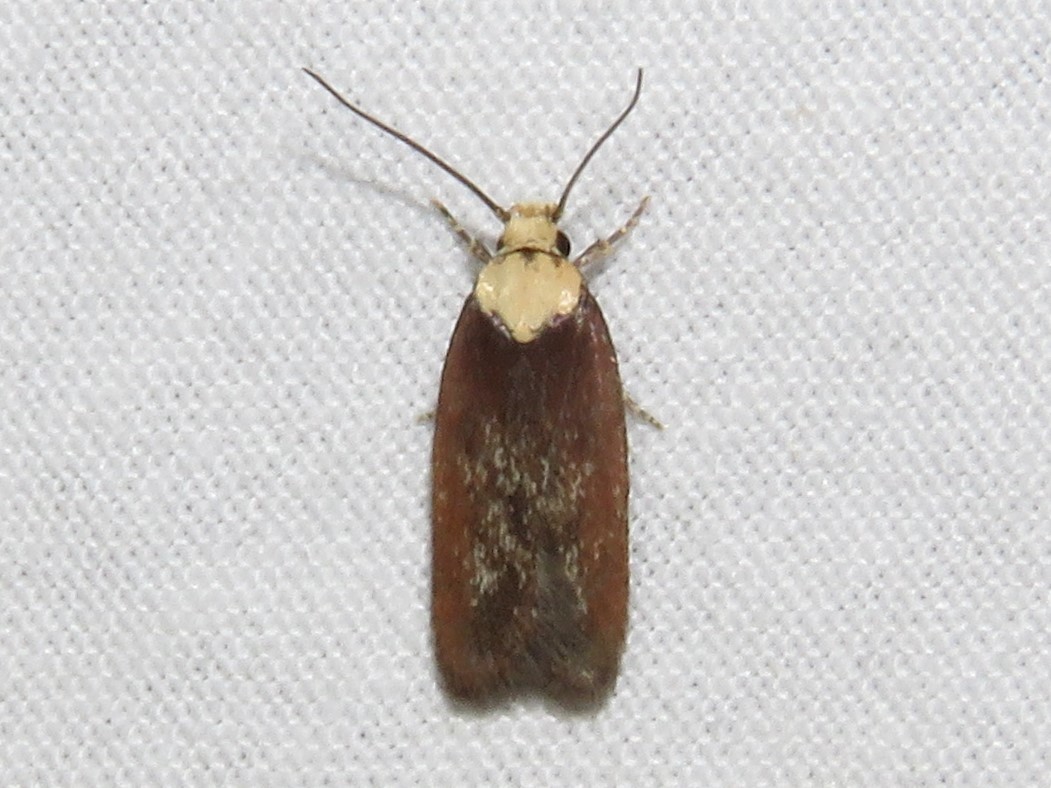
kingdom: Animalia
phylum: Arthropoda
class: Insecta
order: Lepidoptera
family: Depressariidae
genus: Depressaria
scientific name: Depressaria depressana
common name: Lost flat-body
